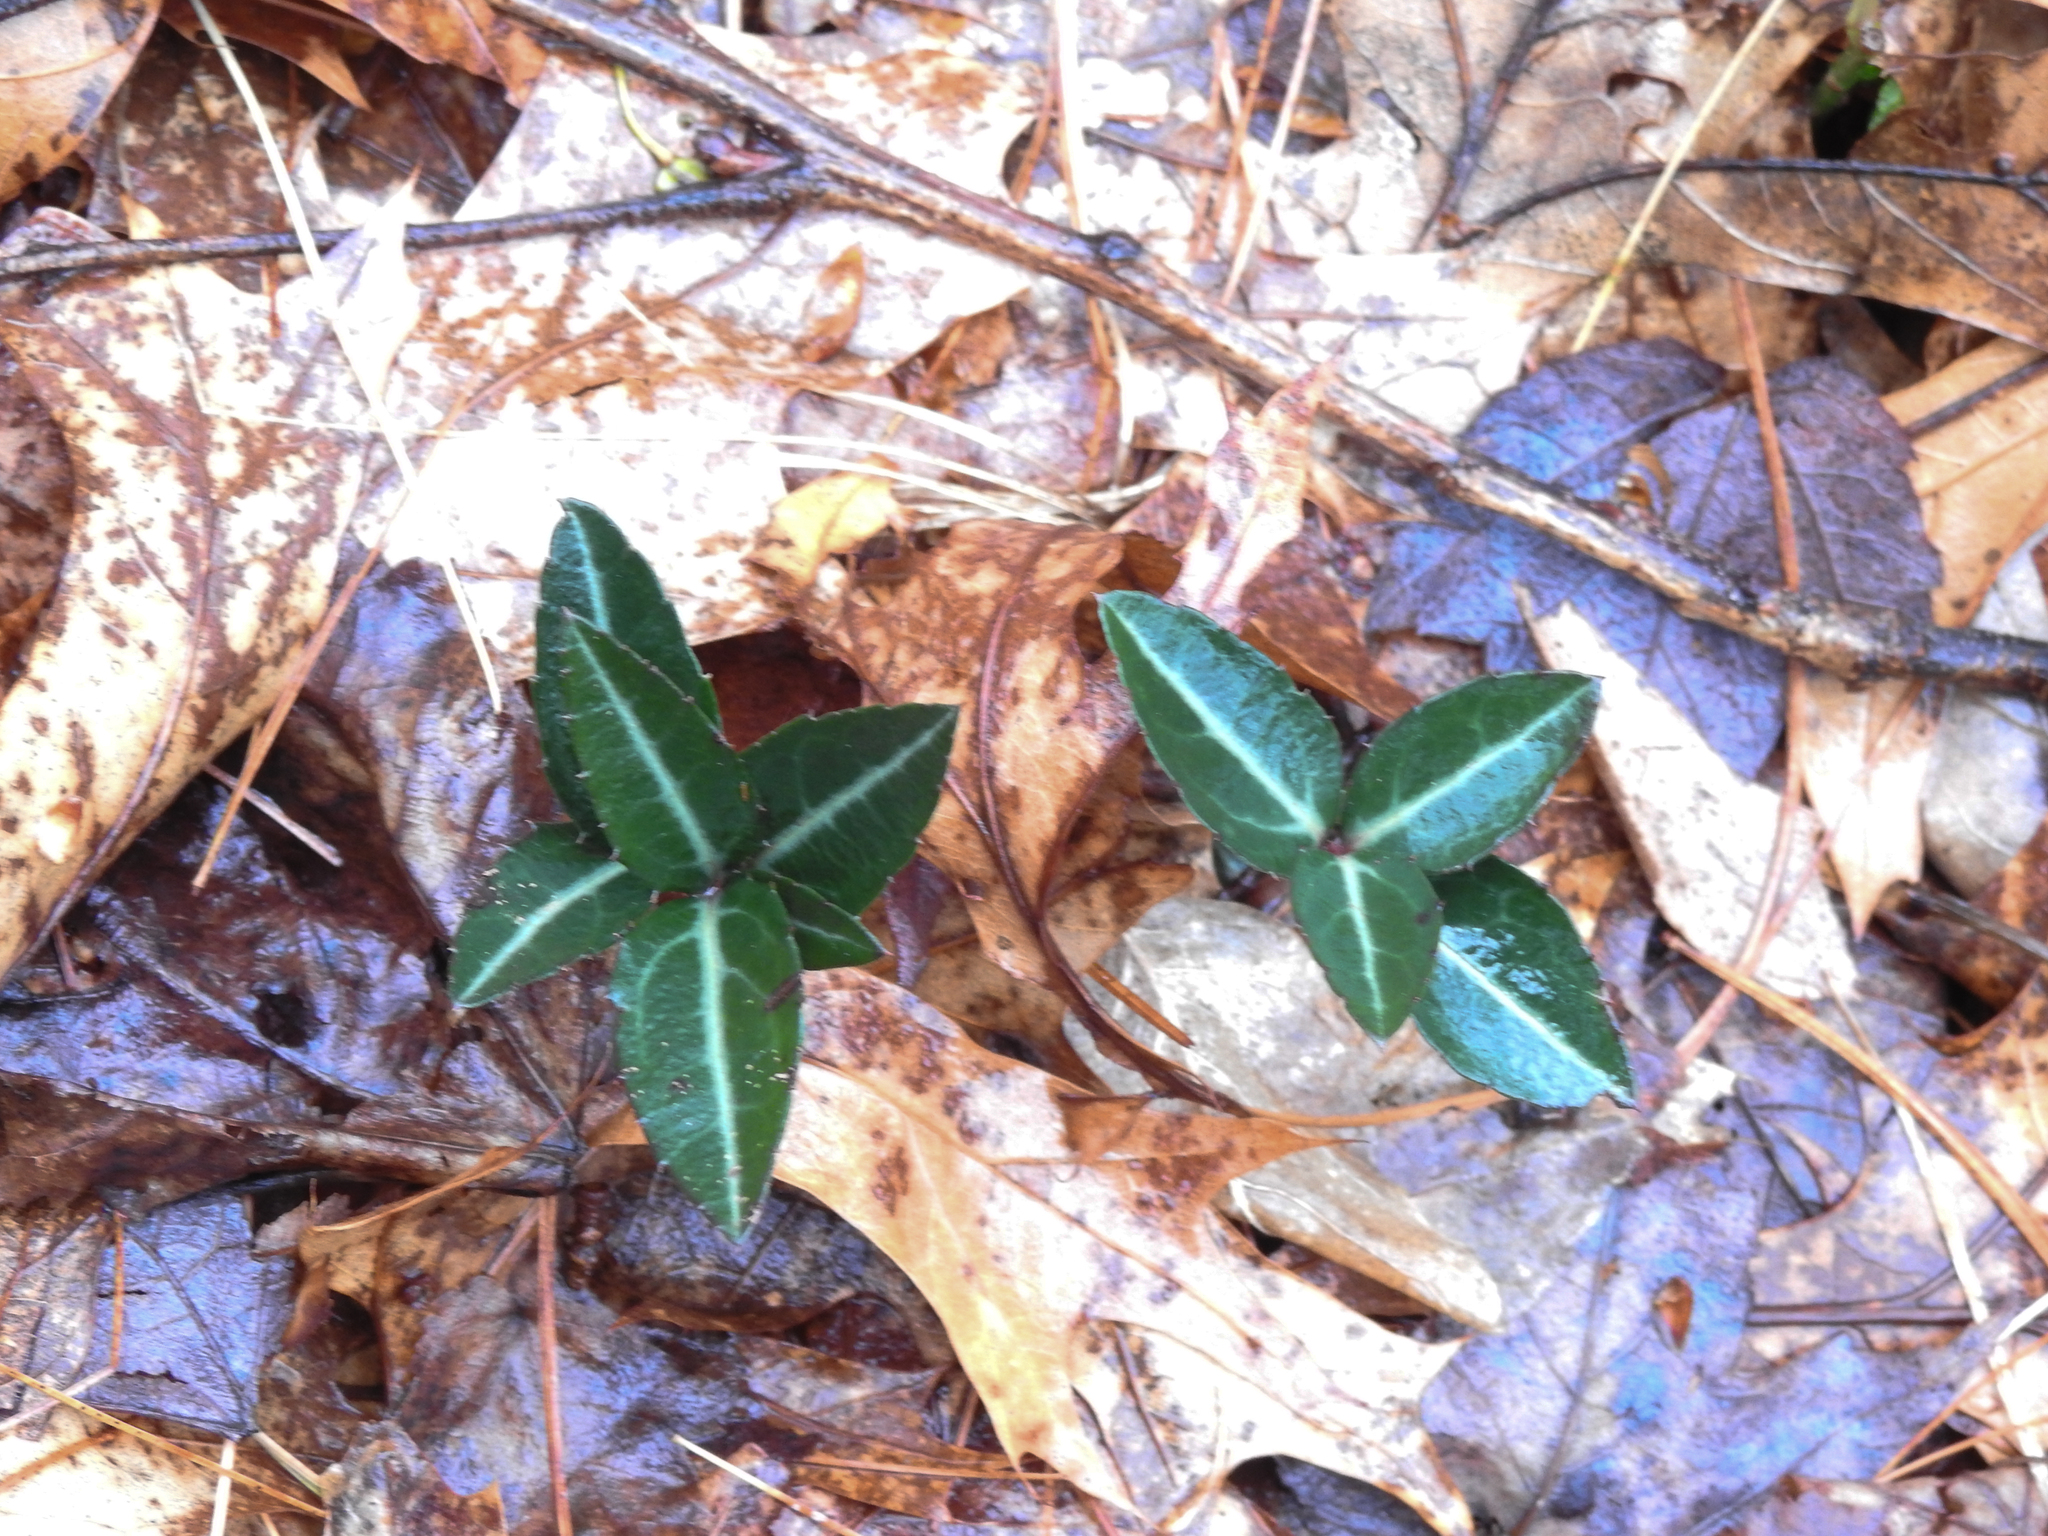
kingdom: Plantae
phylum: Tracheophyta
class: Magnoliopsida
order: Ericales
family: Ericaceae
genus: Chimaphila
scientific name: Chimaphila maculata
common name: Spotted pipsissewa
